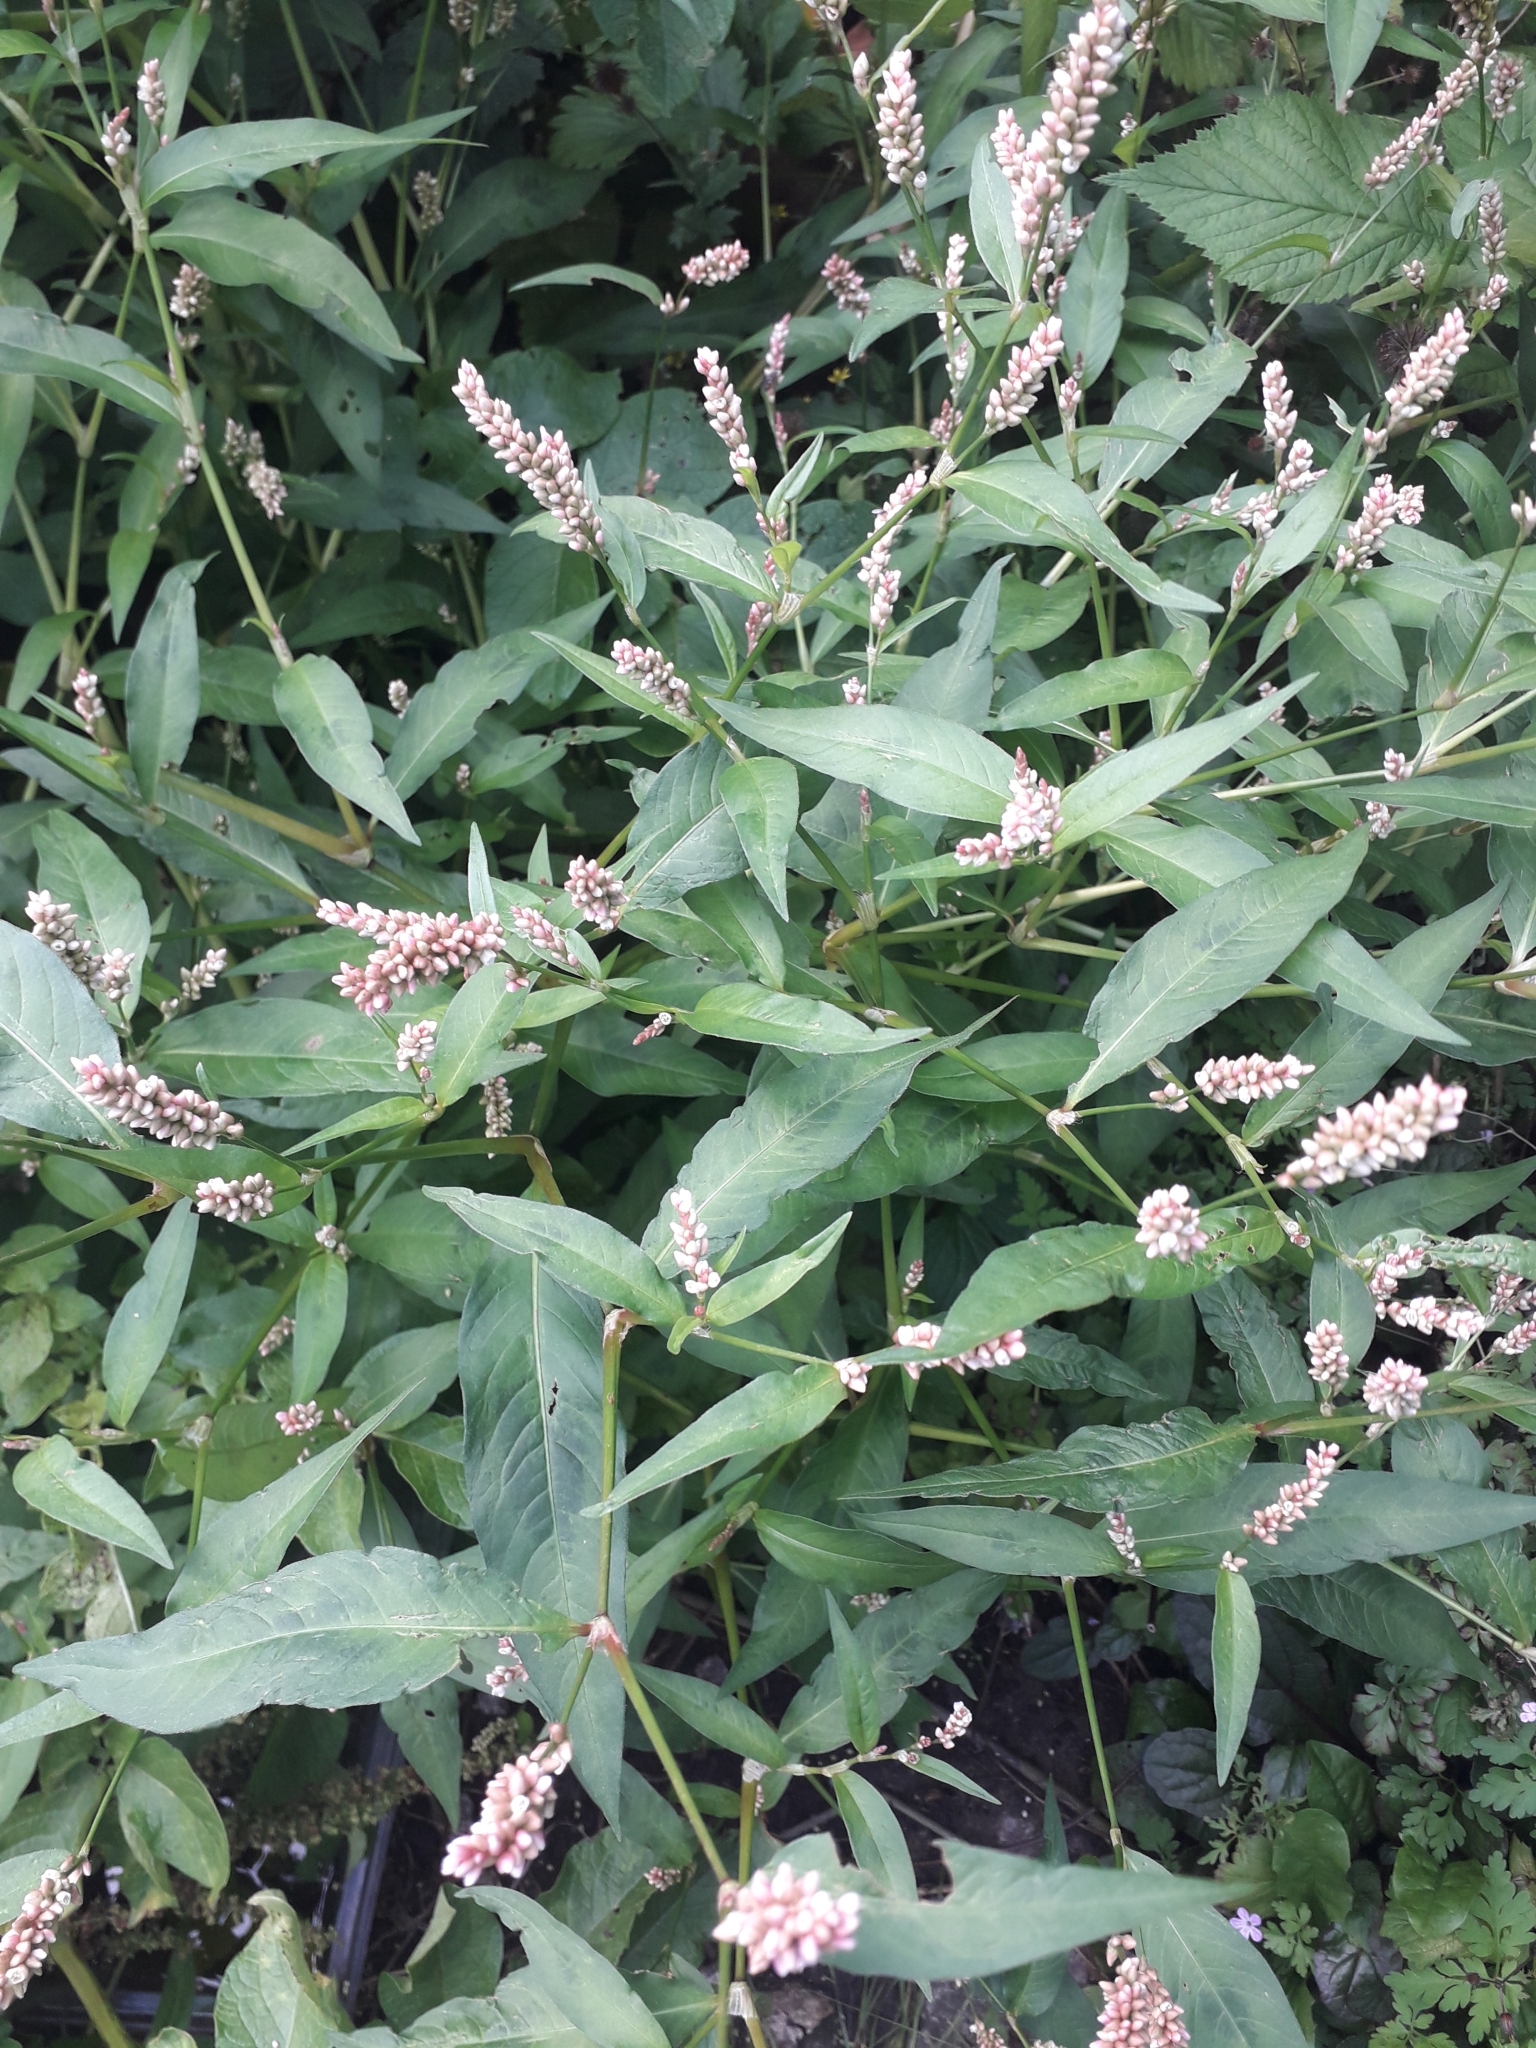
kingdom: Plantae
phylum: Tracheophyta
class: Magnoliopsida
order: Caryophyllales
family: Polygonaceae
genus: Persicaria
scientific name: Persicaria maculosa
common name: Redshank
